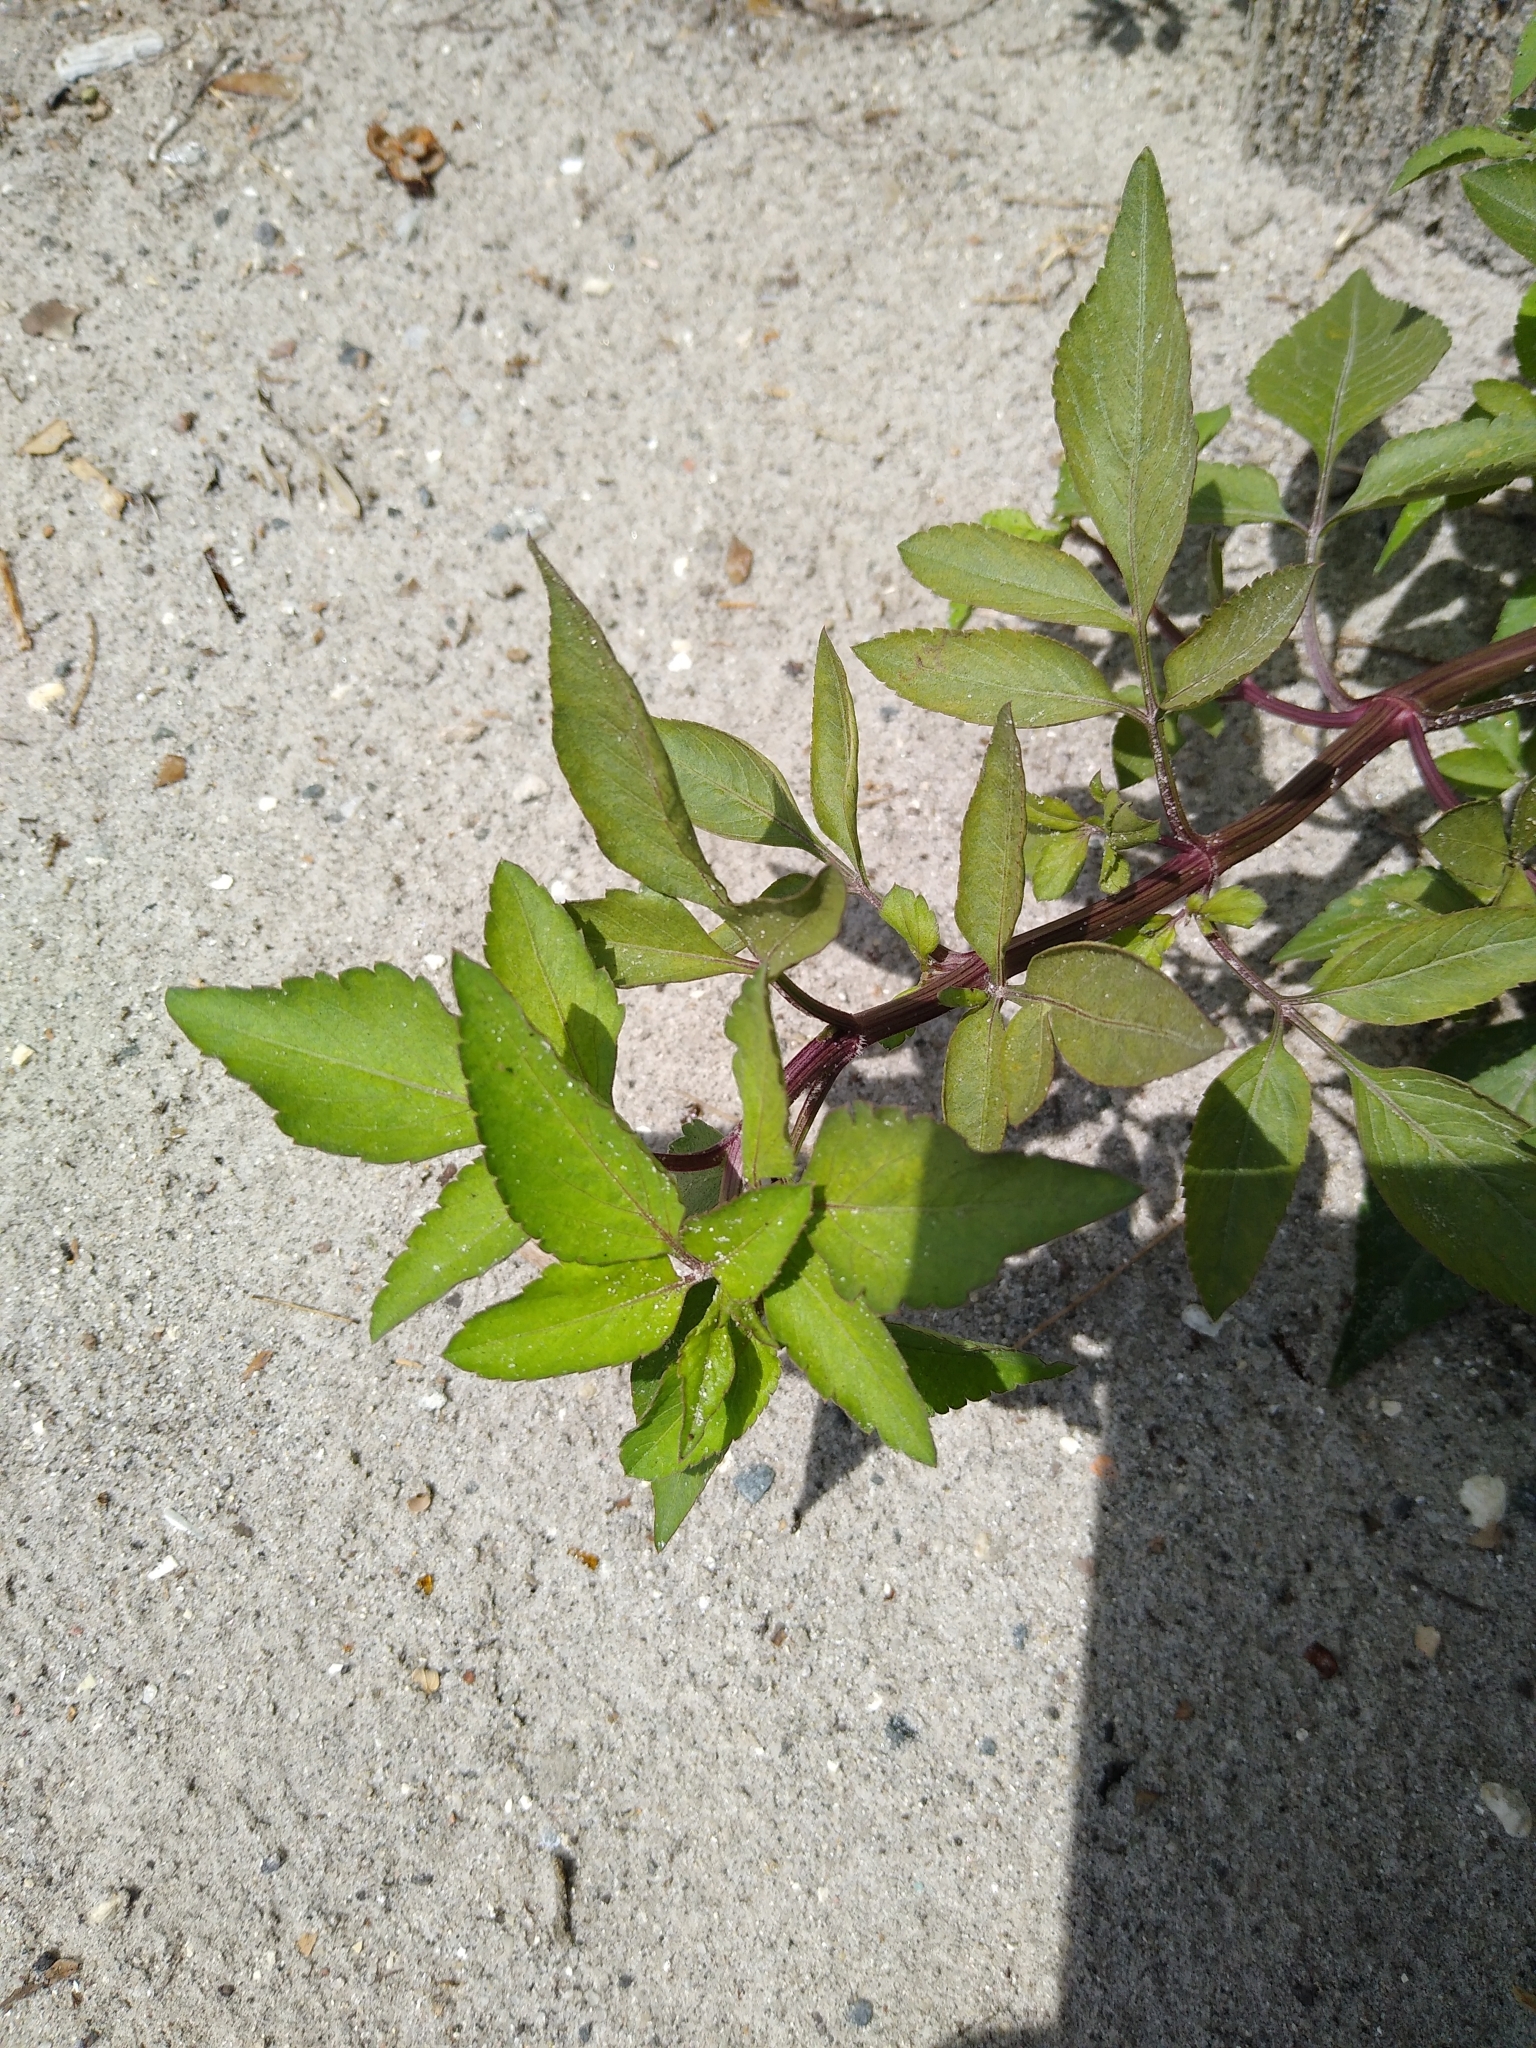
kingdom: Plantae
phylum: Tracheophyta
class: Magnoliopsida
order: Asterales
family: Asteraceae
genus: Bidens
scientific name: Bidens alba
